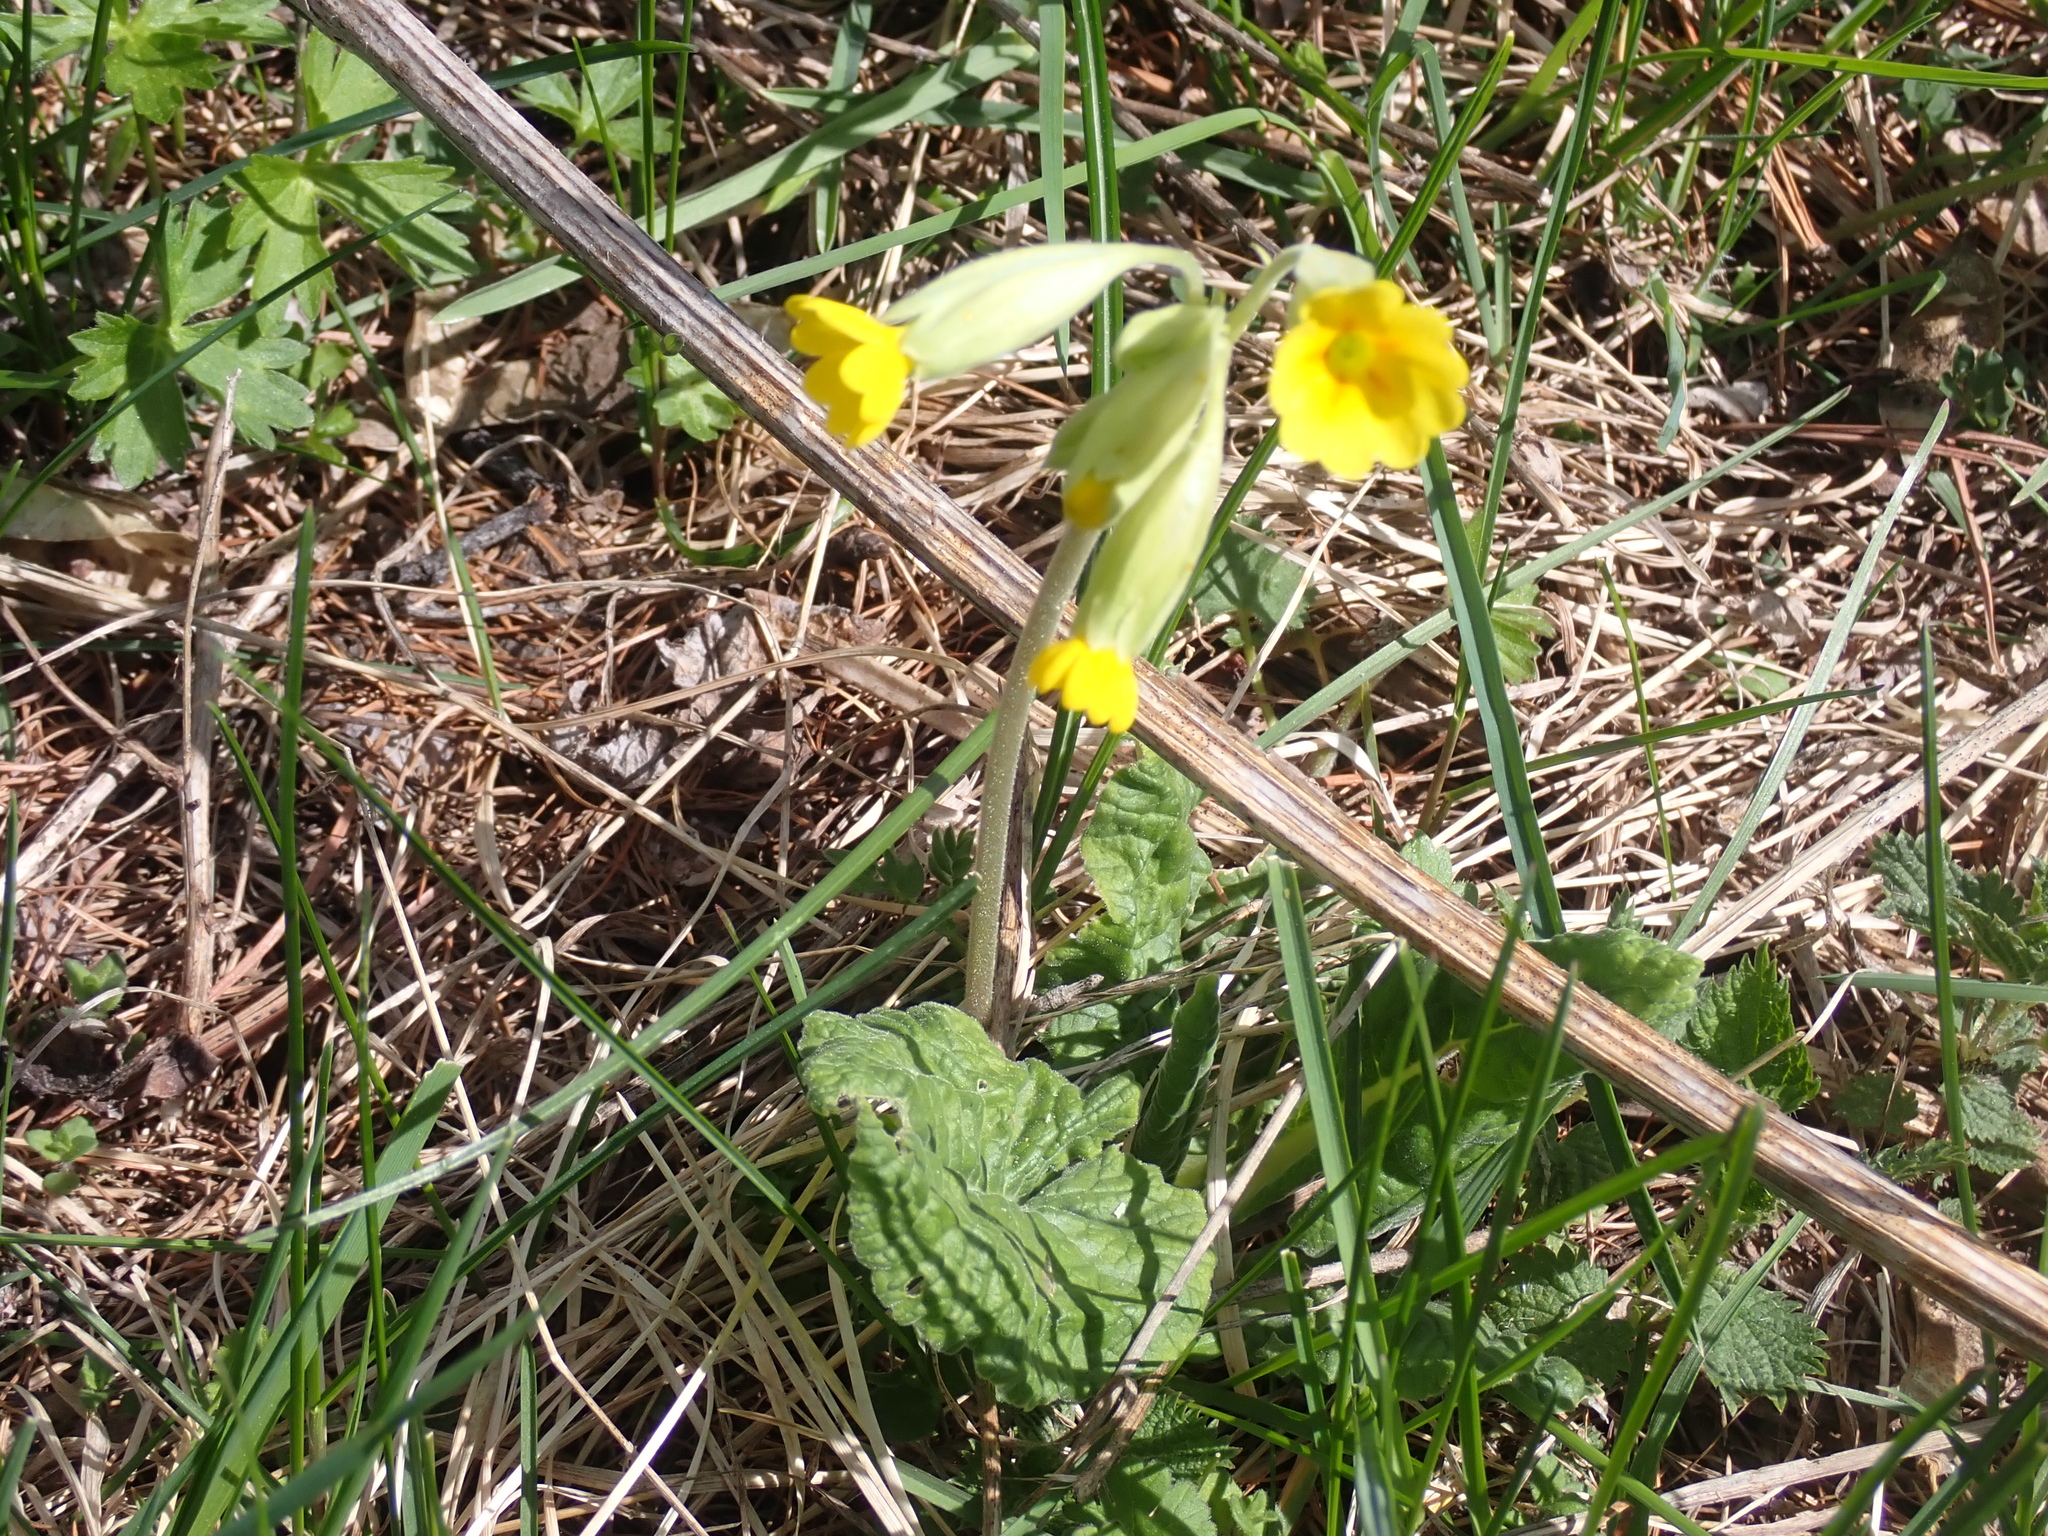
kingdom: Plantae
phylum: Tracheophyta
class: Magnoliopsida
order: Ericales
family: Primulaceae
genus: Primula
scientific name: Primula veris
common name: Cowslip
